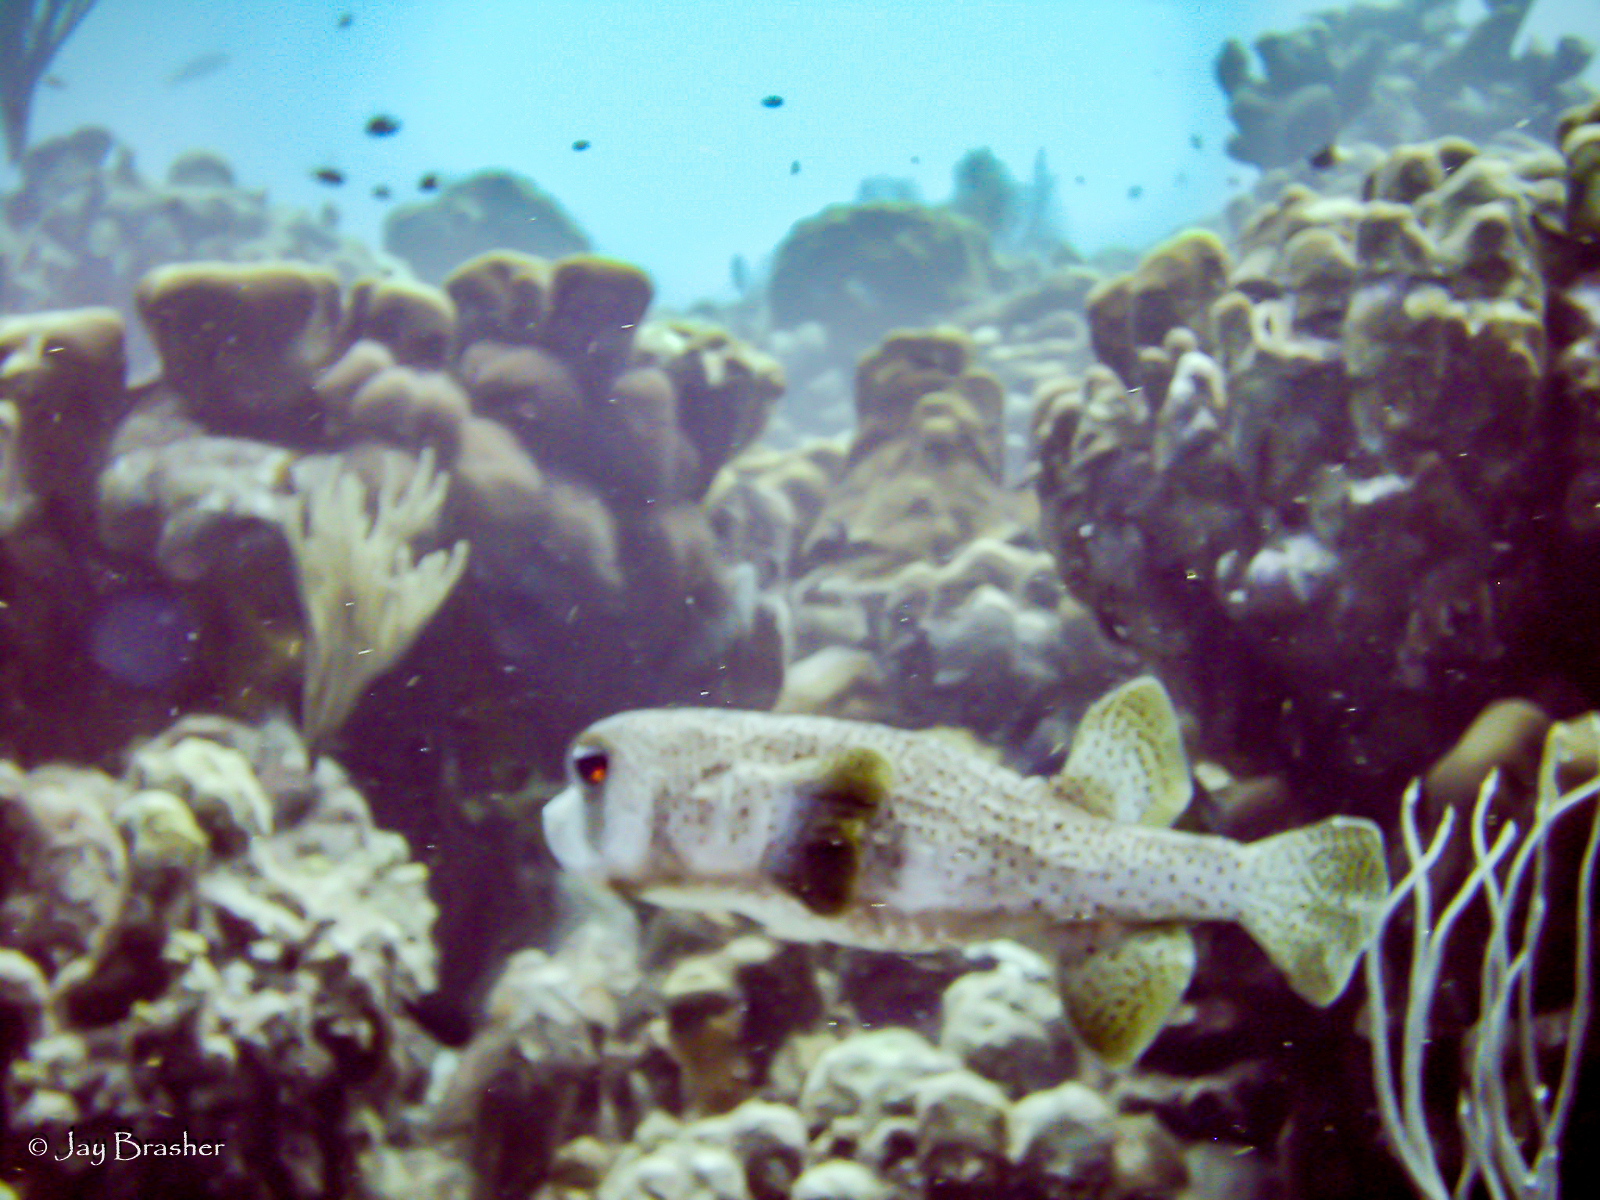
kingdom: Animalia
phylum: Chordata
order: Tetraodontiformes
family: Diodontidae
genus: Diodon
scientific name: Diodon hystrix
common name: Giant porcupinefish
